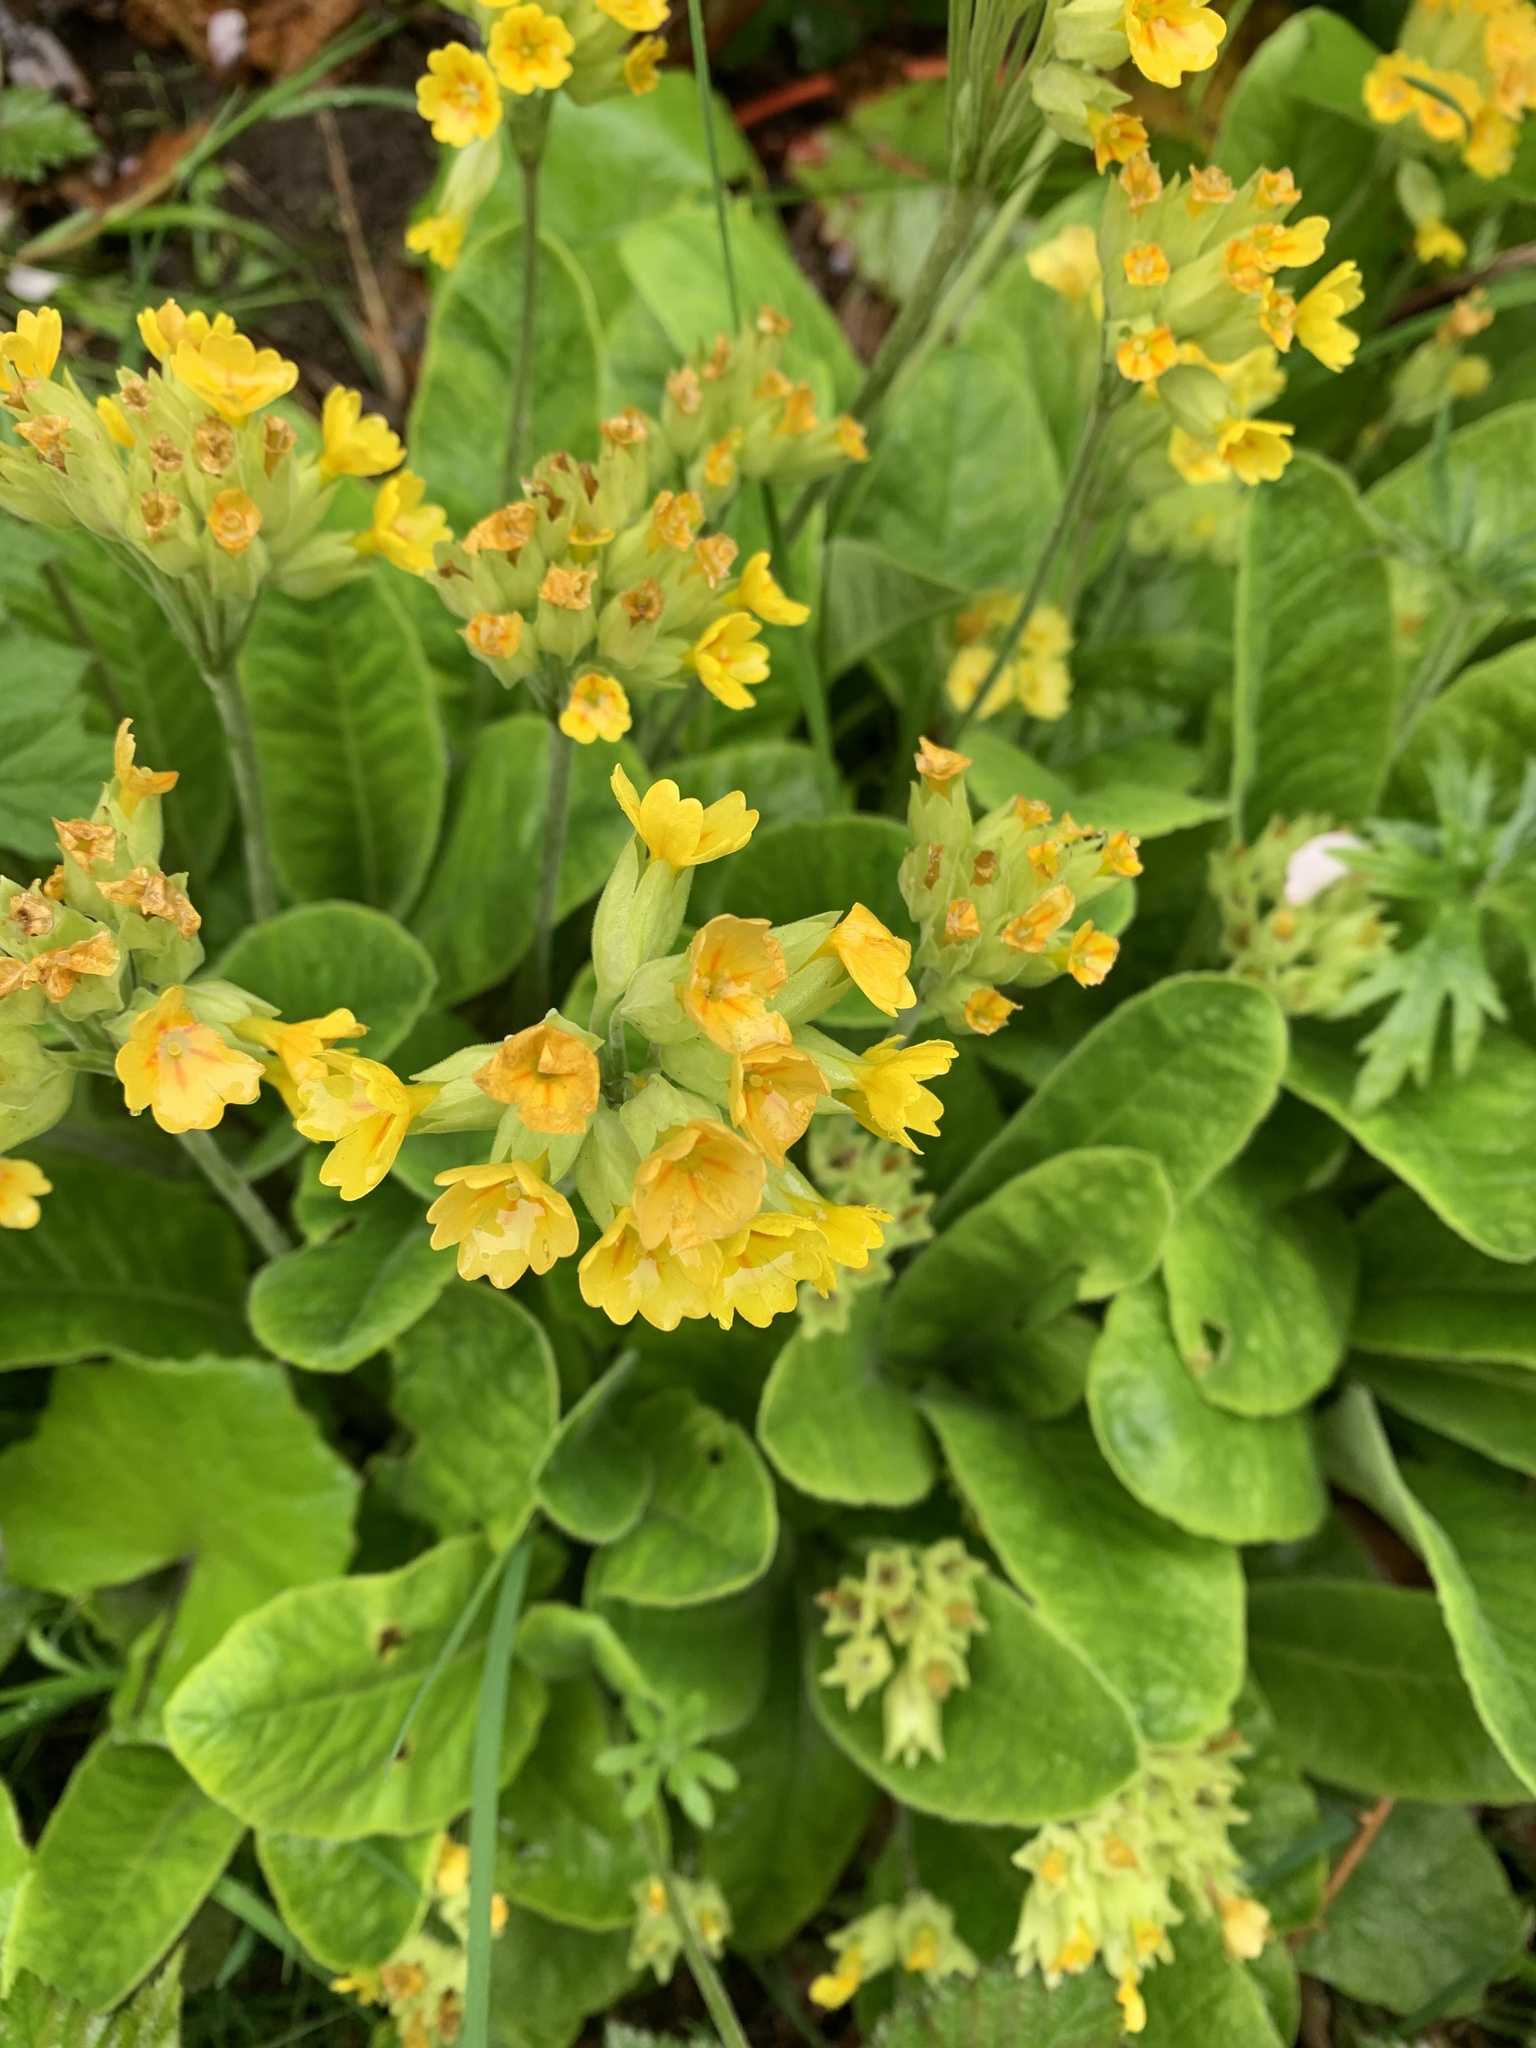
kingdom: Plantae
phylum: Tracheophyta
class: Magnoliopsida
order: Ericales
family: Primulaceae
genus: Primula
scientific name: Primula veris
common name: Cowslip
